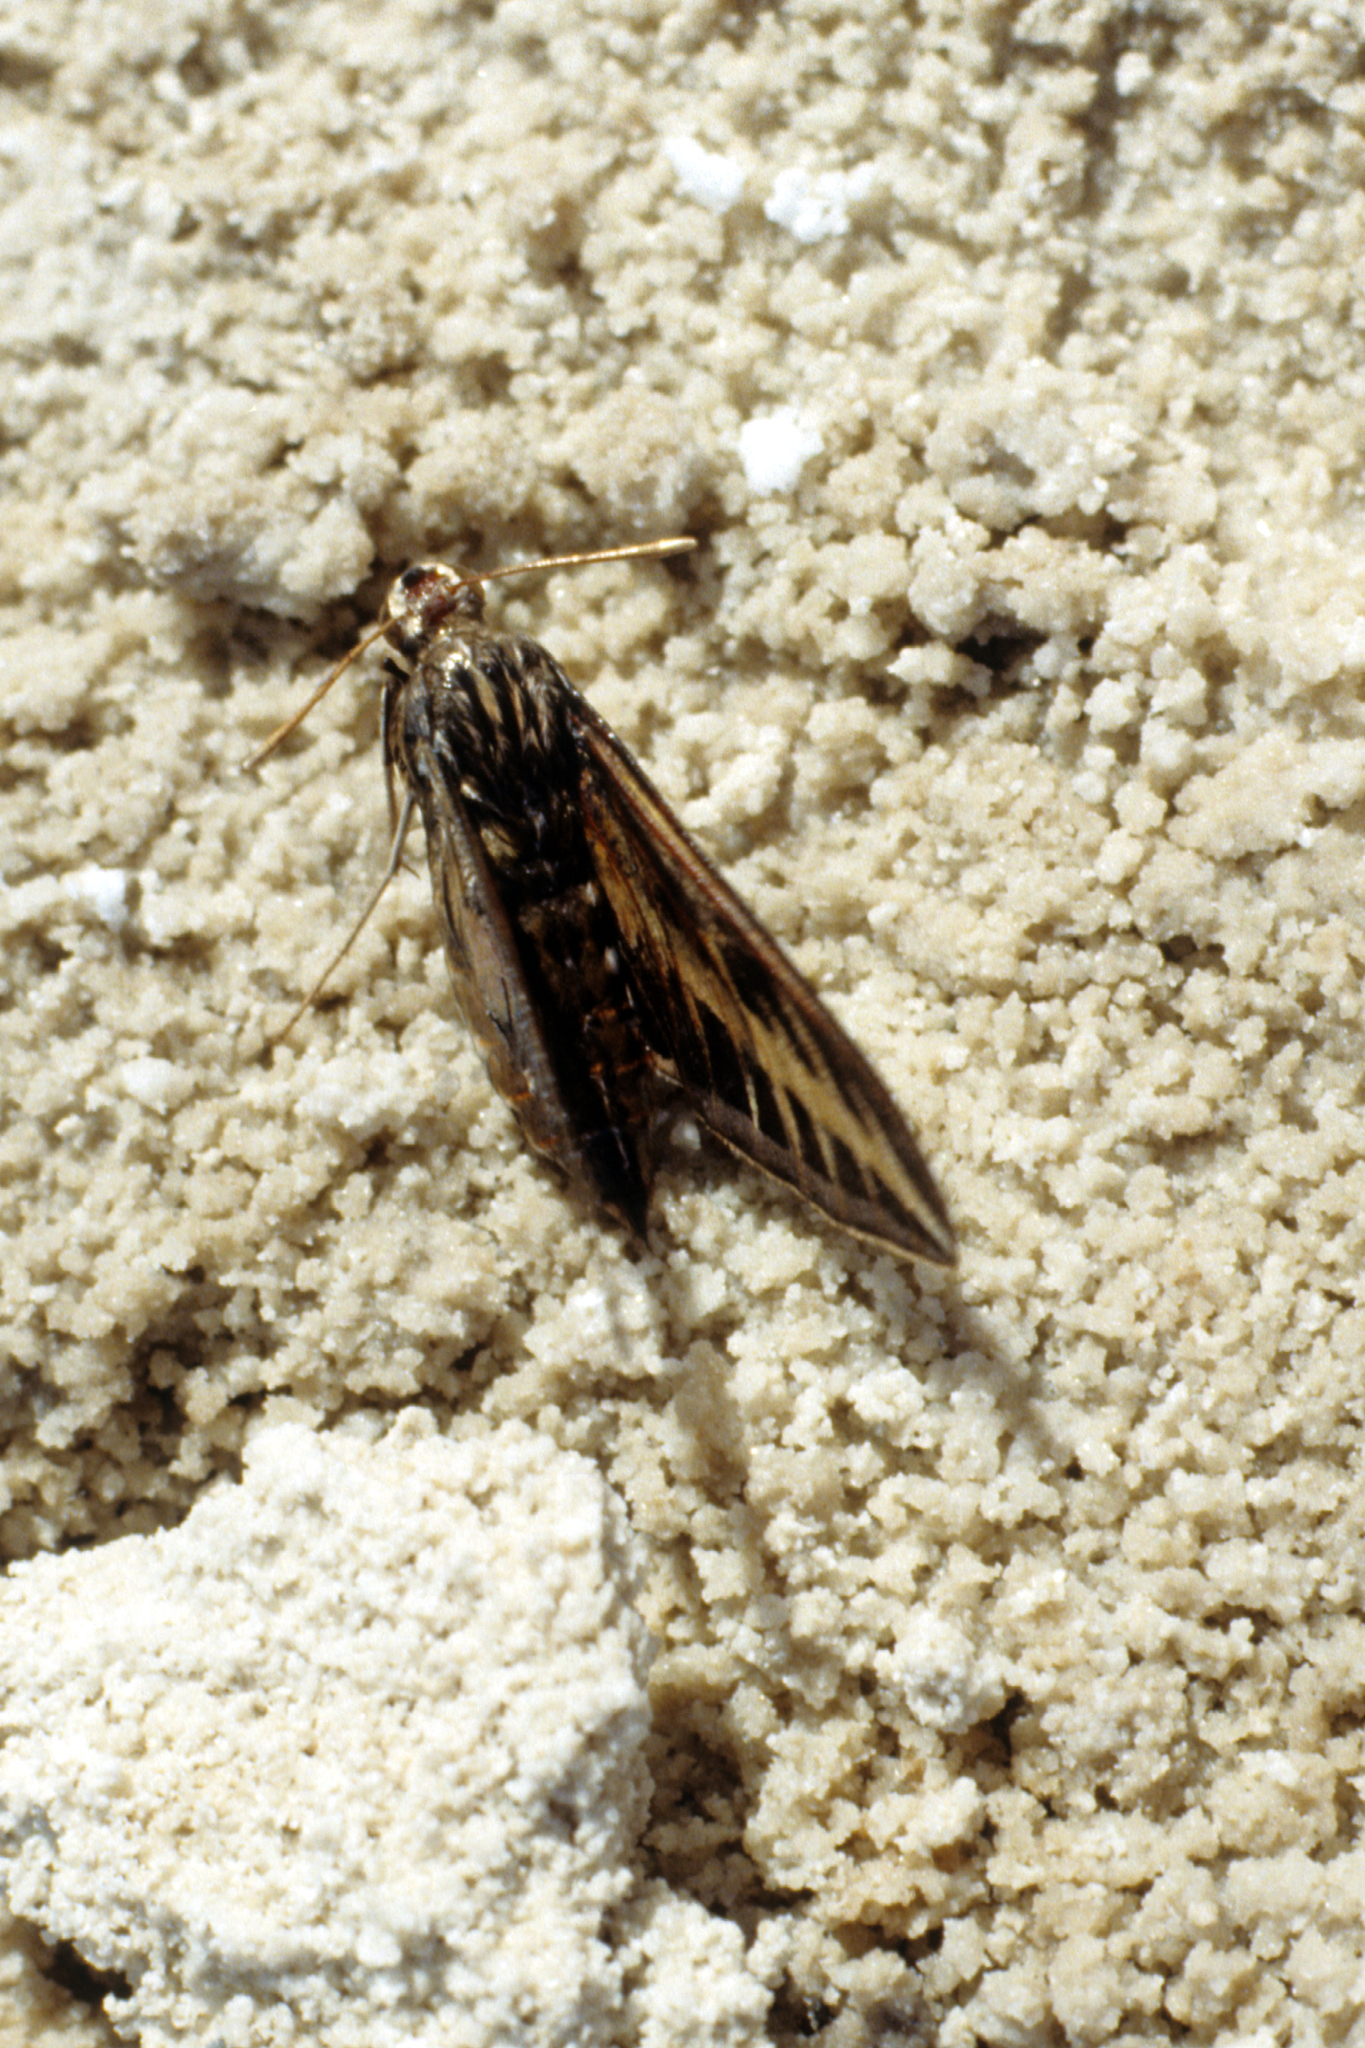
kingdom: Animalia
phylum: Arthropoda
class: Insecta
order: Lepidoptera
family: Sphingidae
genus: Hyles
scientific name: Hyles lineata
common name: White-lined sphinx
